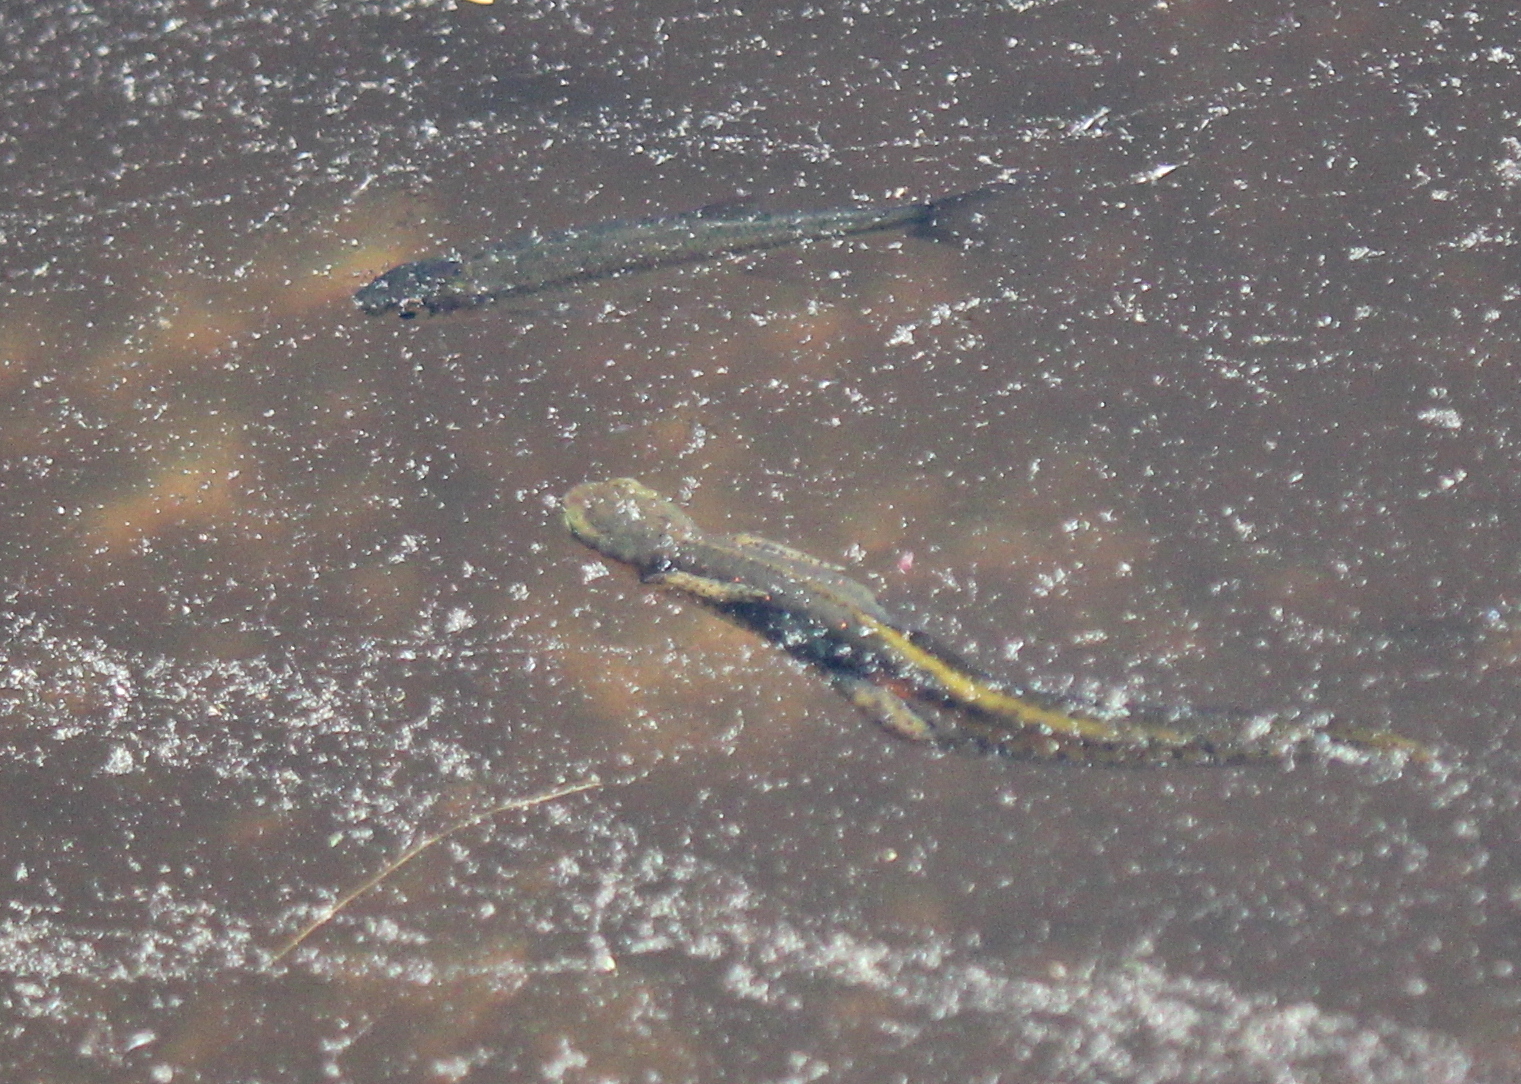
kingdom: Animalia
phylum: Chordata
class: Amphibia
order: Caudata
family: Salamandridae
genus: Notophthalmus
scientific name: Notophthalmus viridescens
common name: Eastern newt
